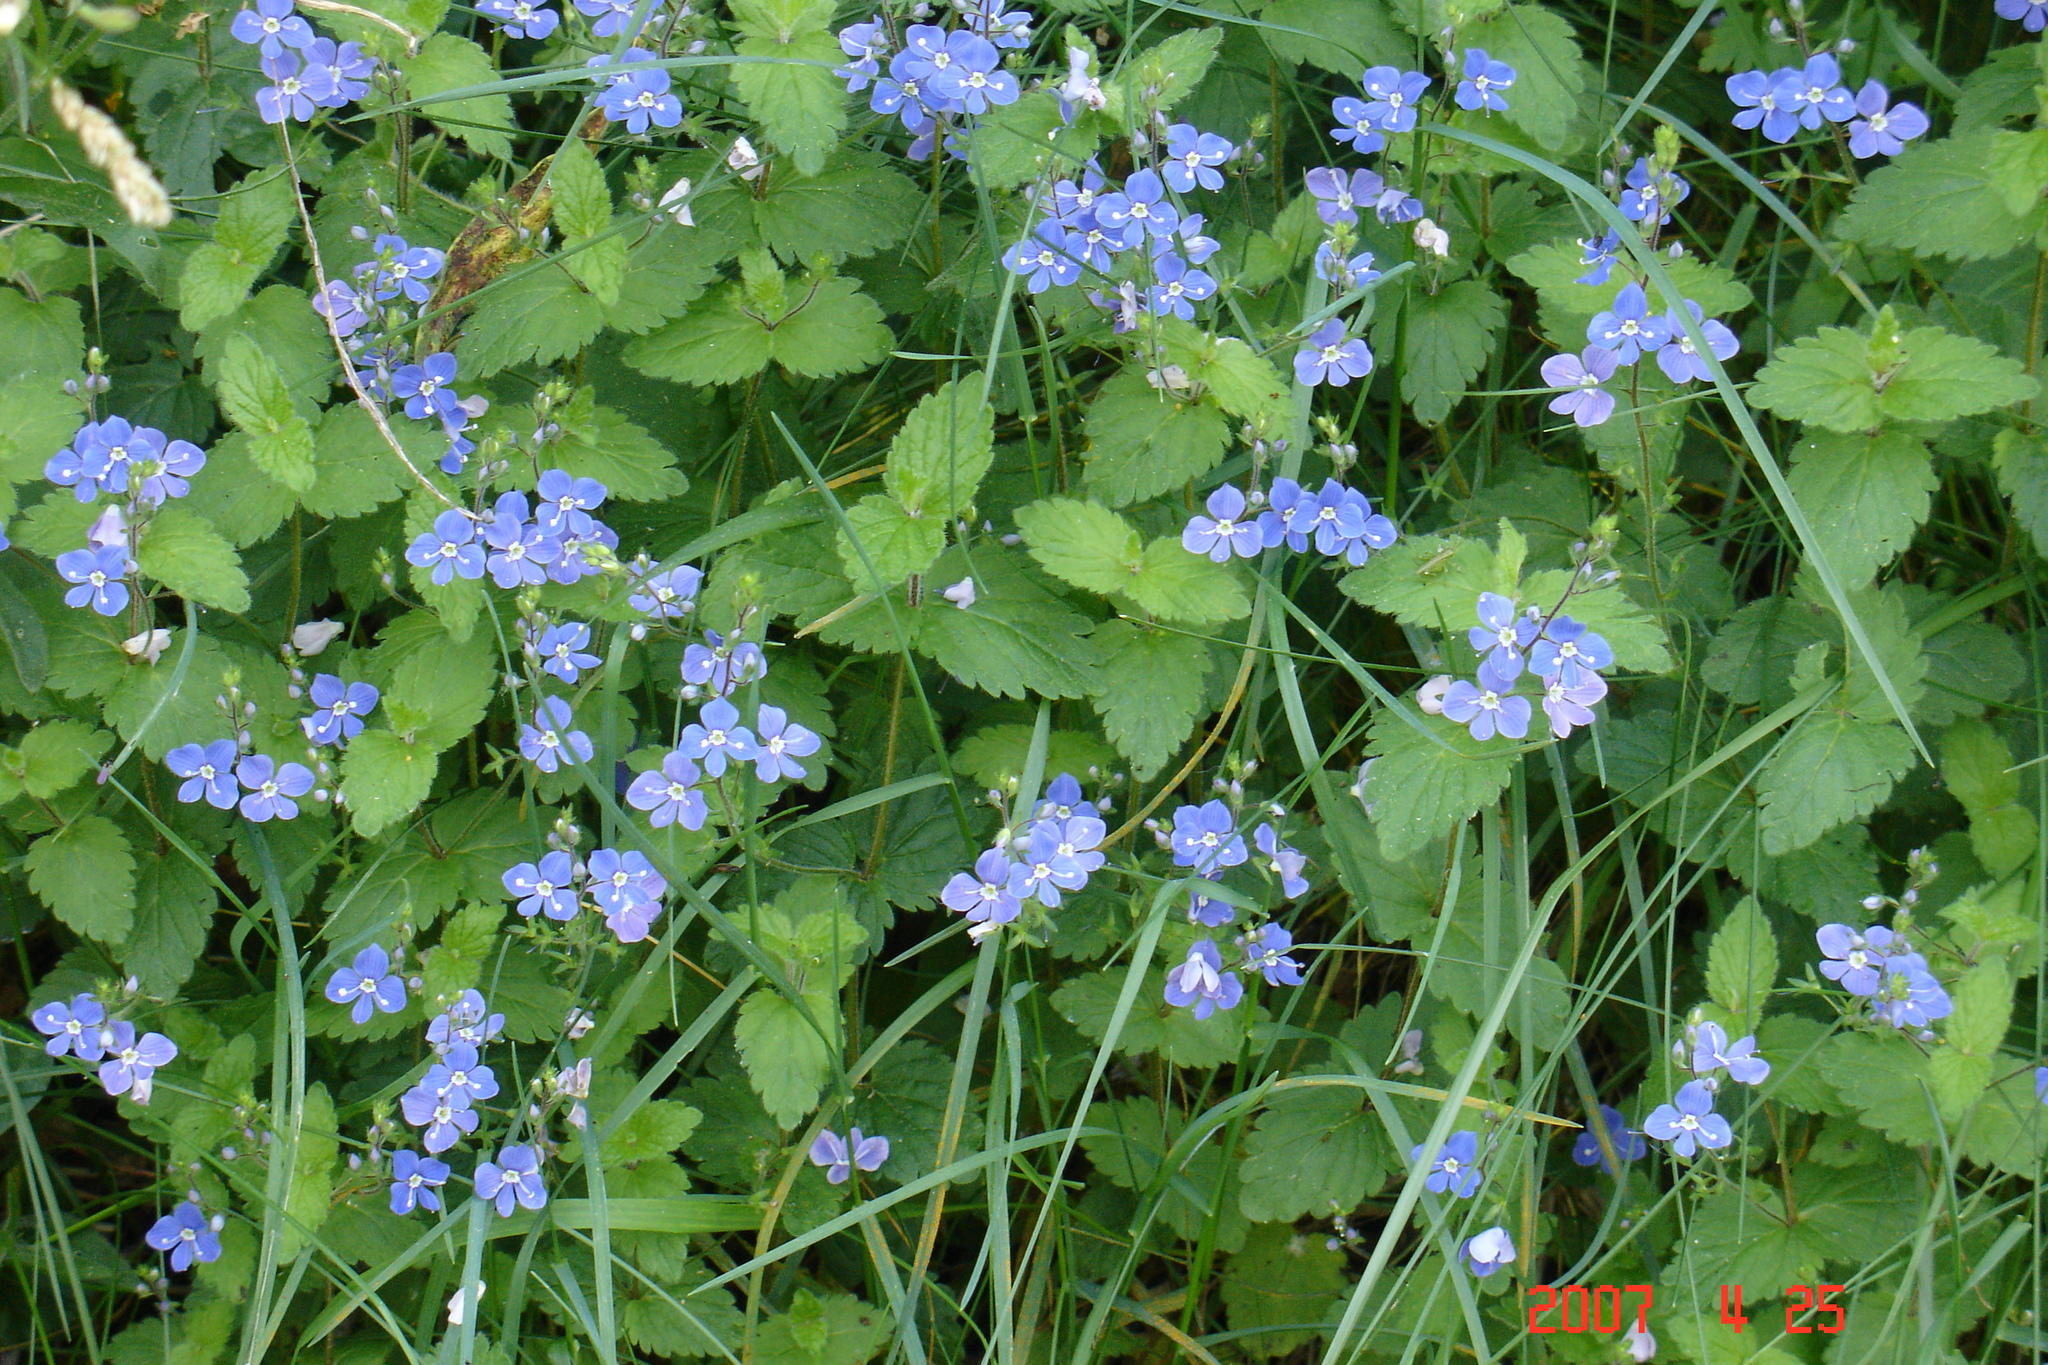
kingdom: Plantae
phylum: Tracheophyta
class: Magnoliopsida
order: Lamiales
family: Plantaginaceae
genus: Veronica
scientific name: Veronica chamaedrys
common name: Germander speedwell
